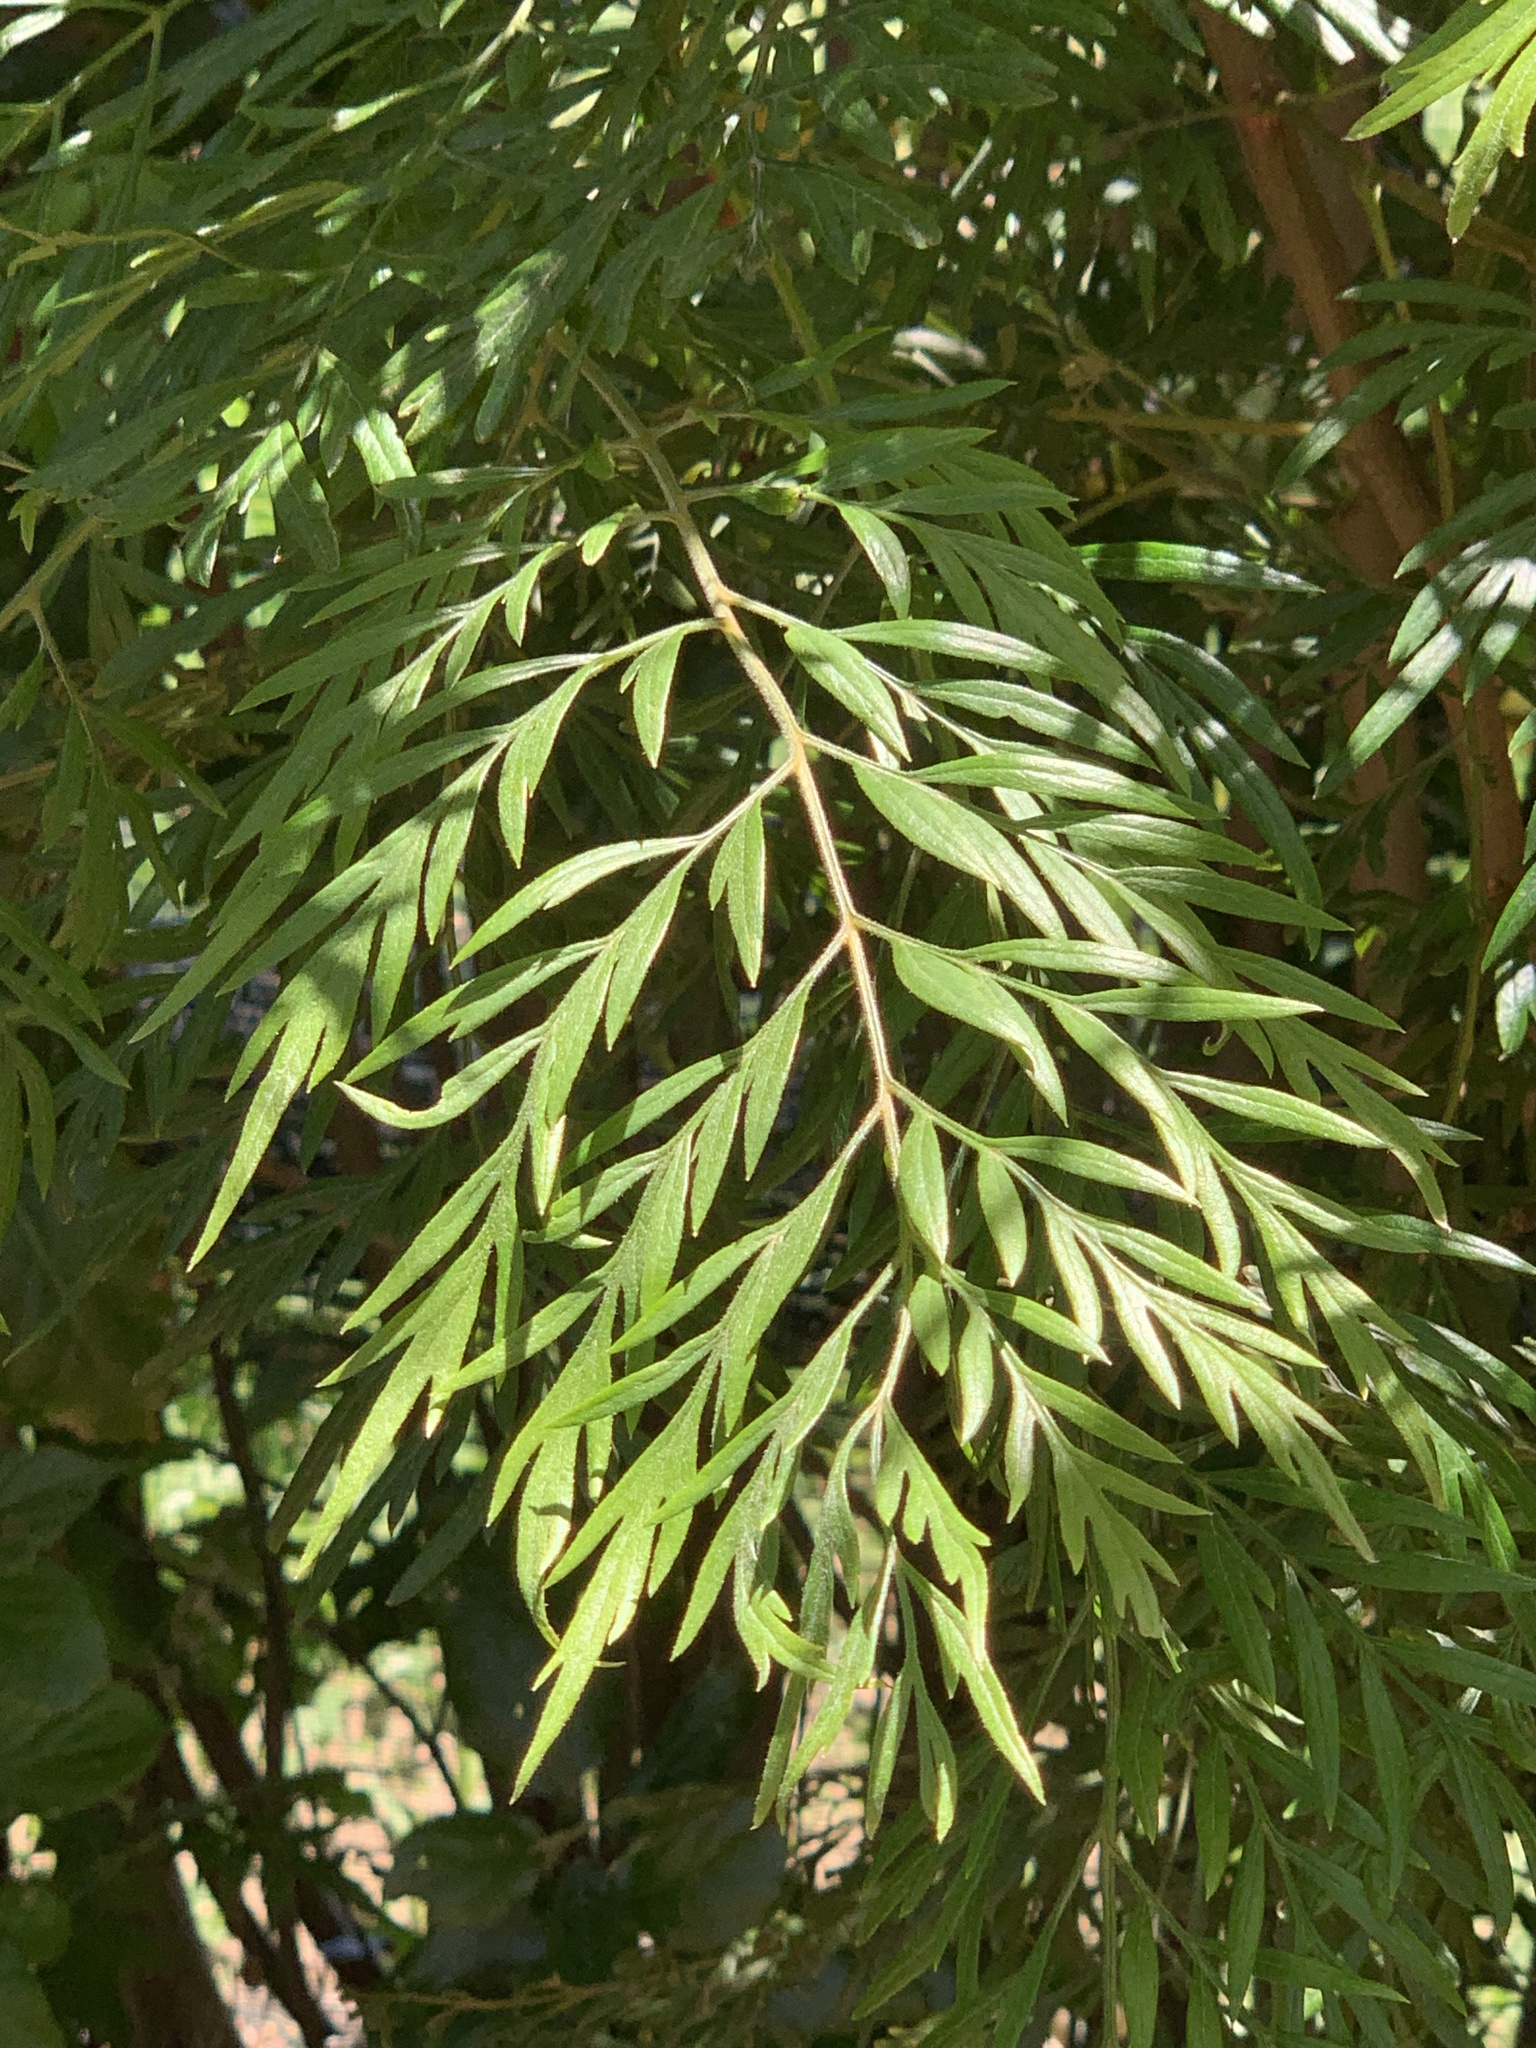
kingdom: Plantae
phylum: Tracheophyta
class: Magnoliopsida
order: Proteales
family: Proteaceae
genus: Grevillea
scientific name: Grevillea robusta
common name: Silkoak
